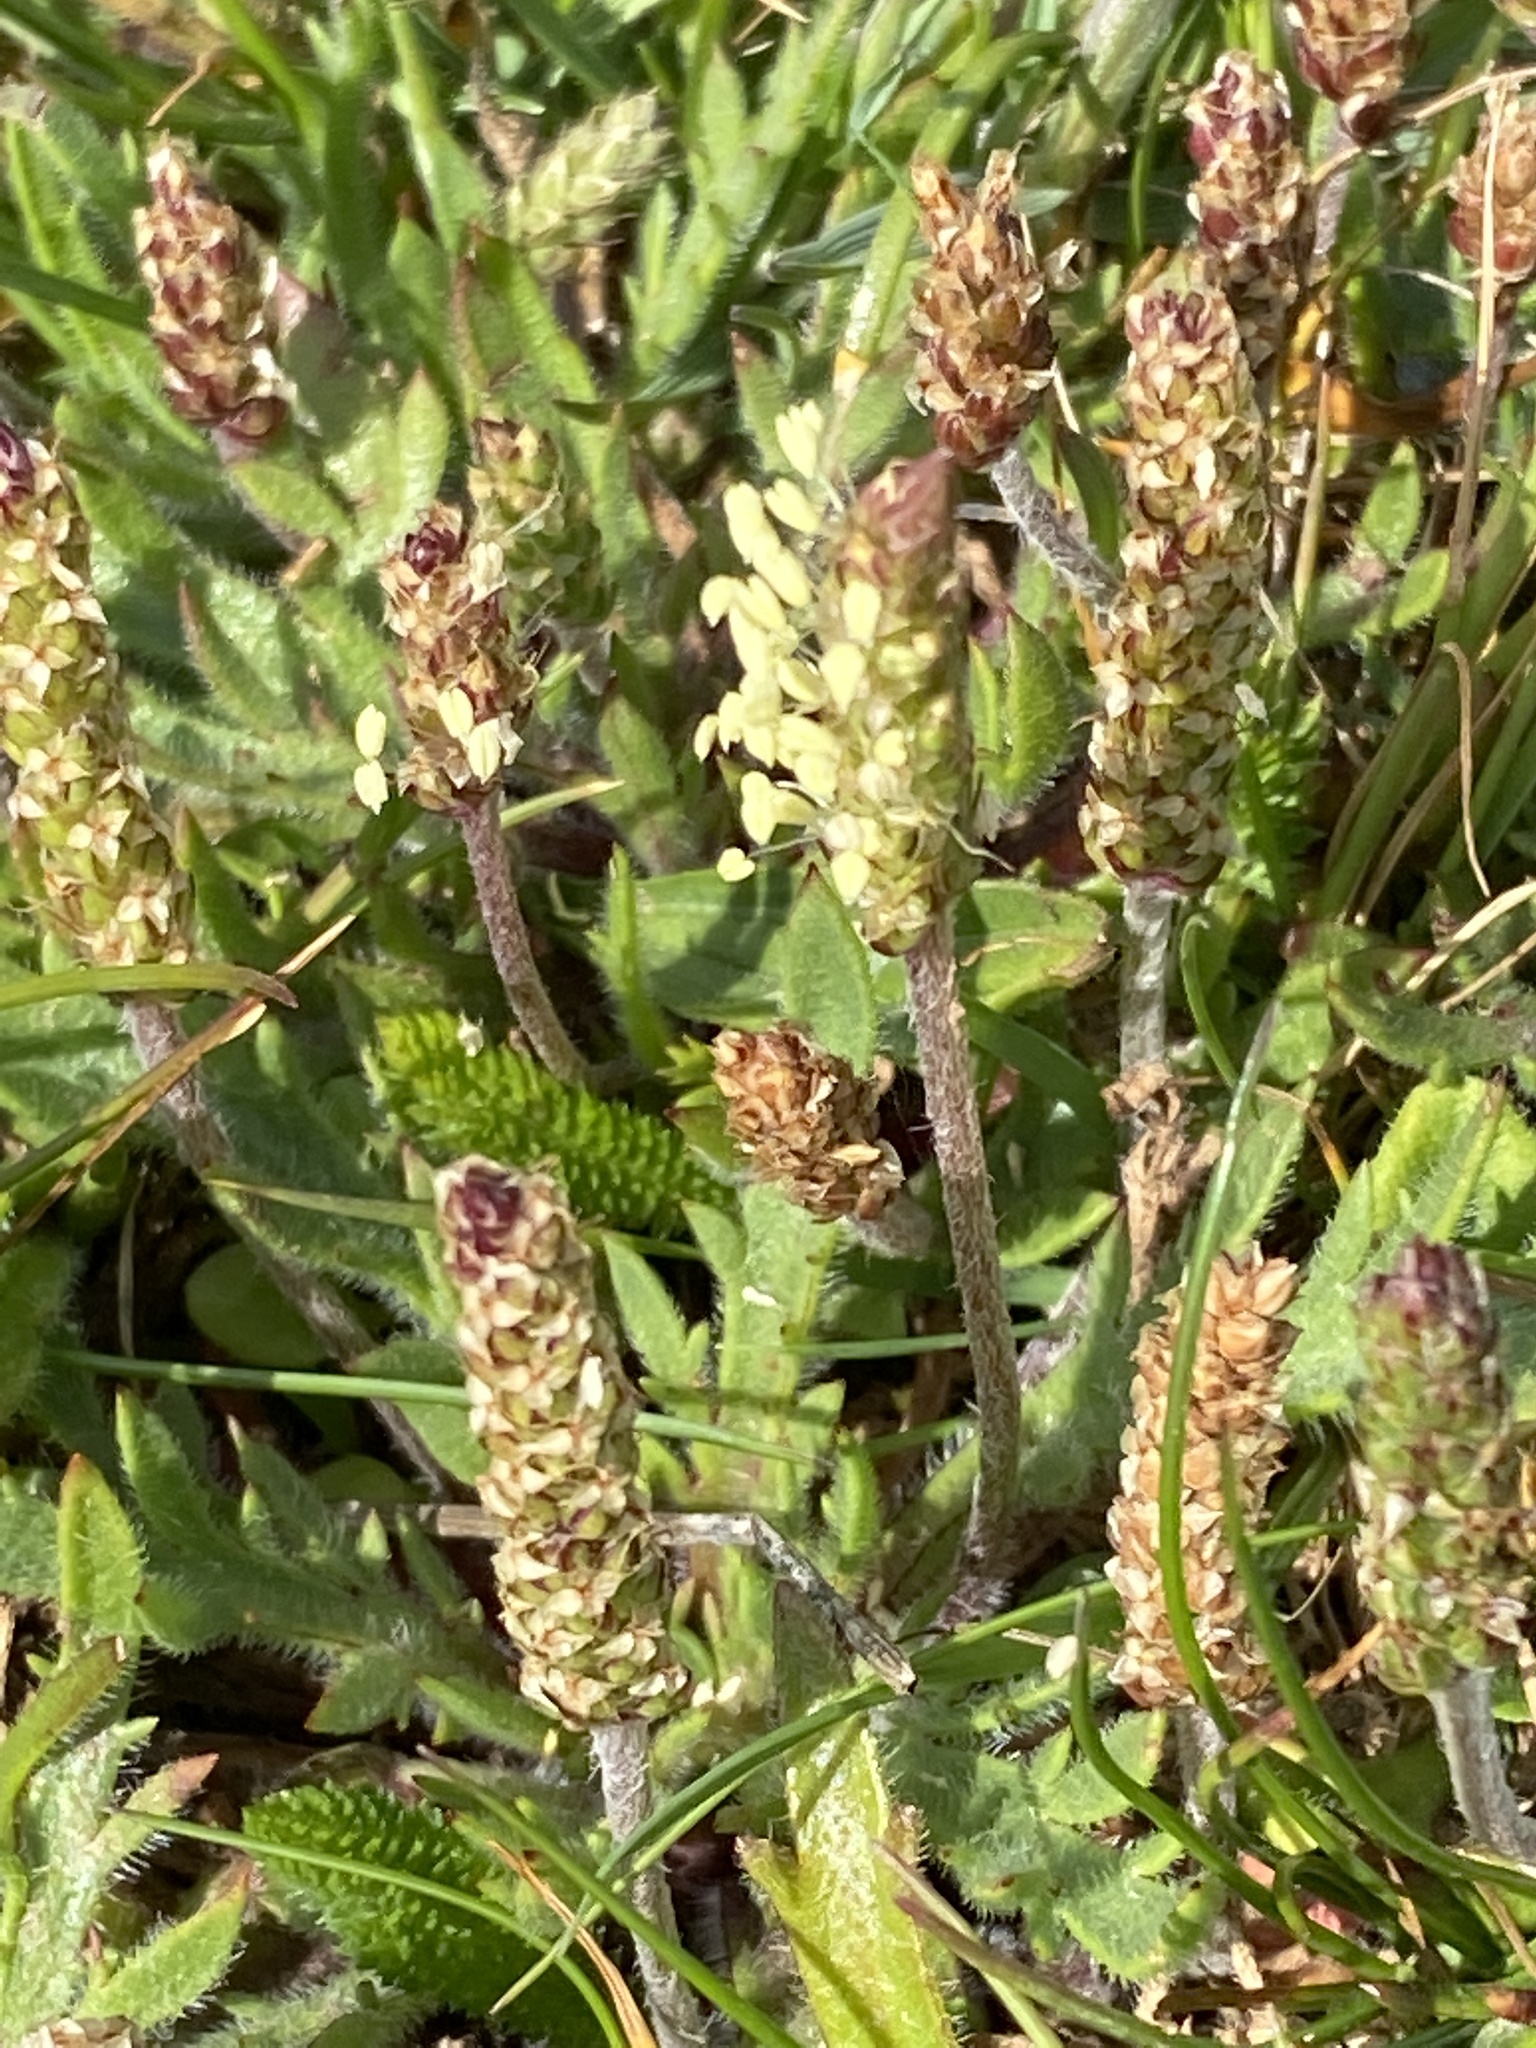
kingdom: Plantae
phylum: Tracheophyta
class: Magnoliopsida
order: Lamiales
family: Plantaginaceae
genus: Plantago
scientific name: Plantago maritima
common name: Sea plantain
